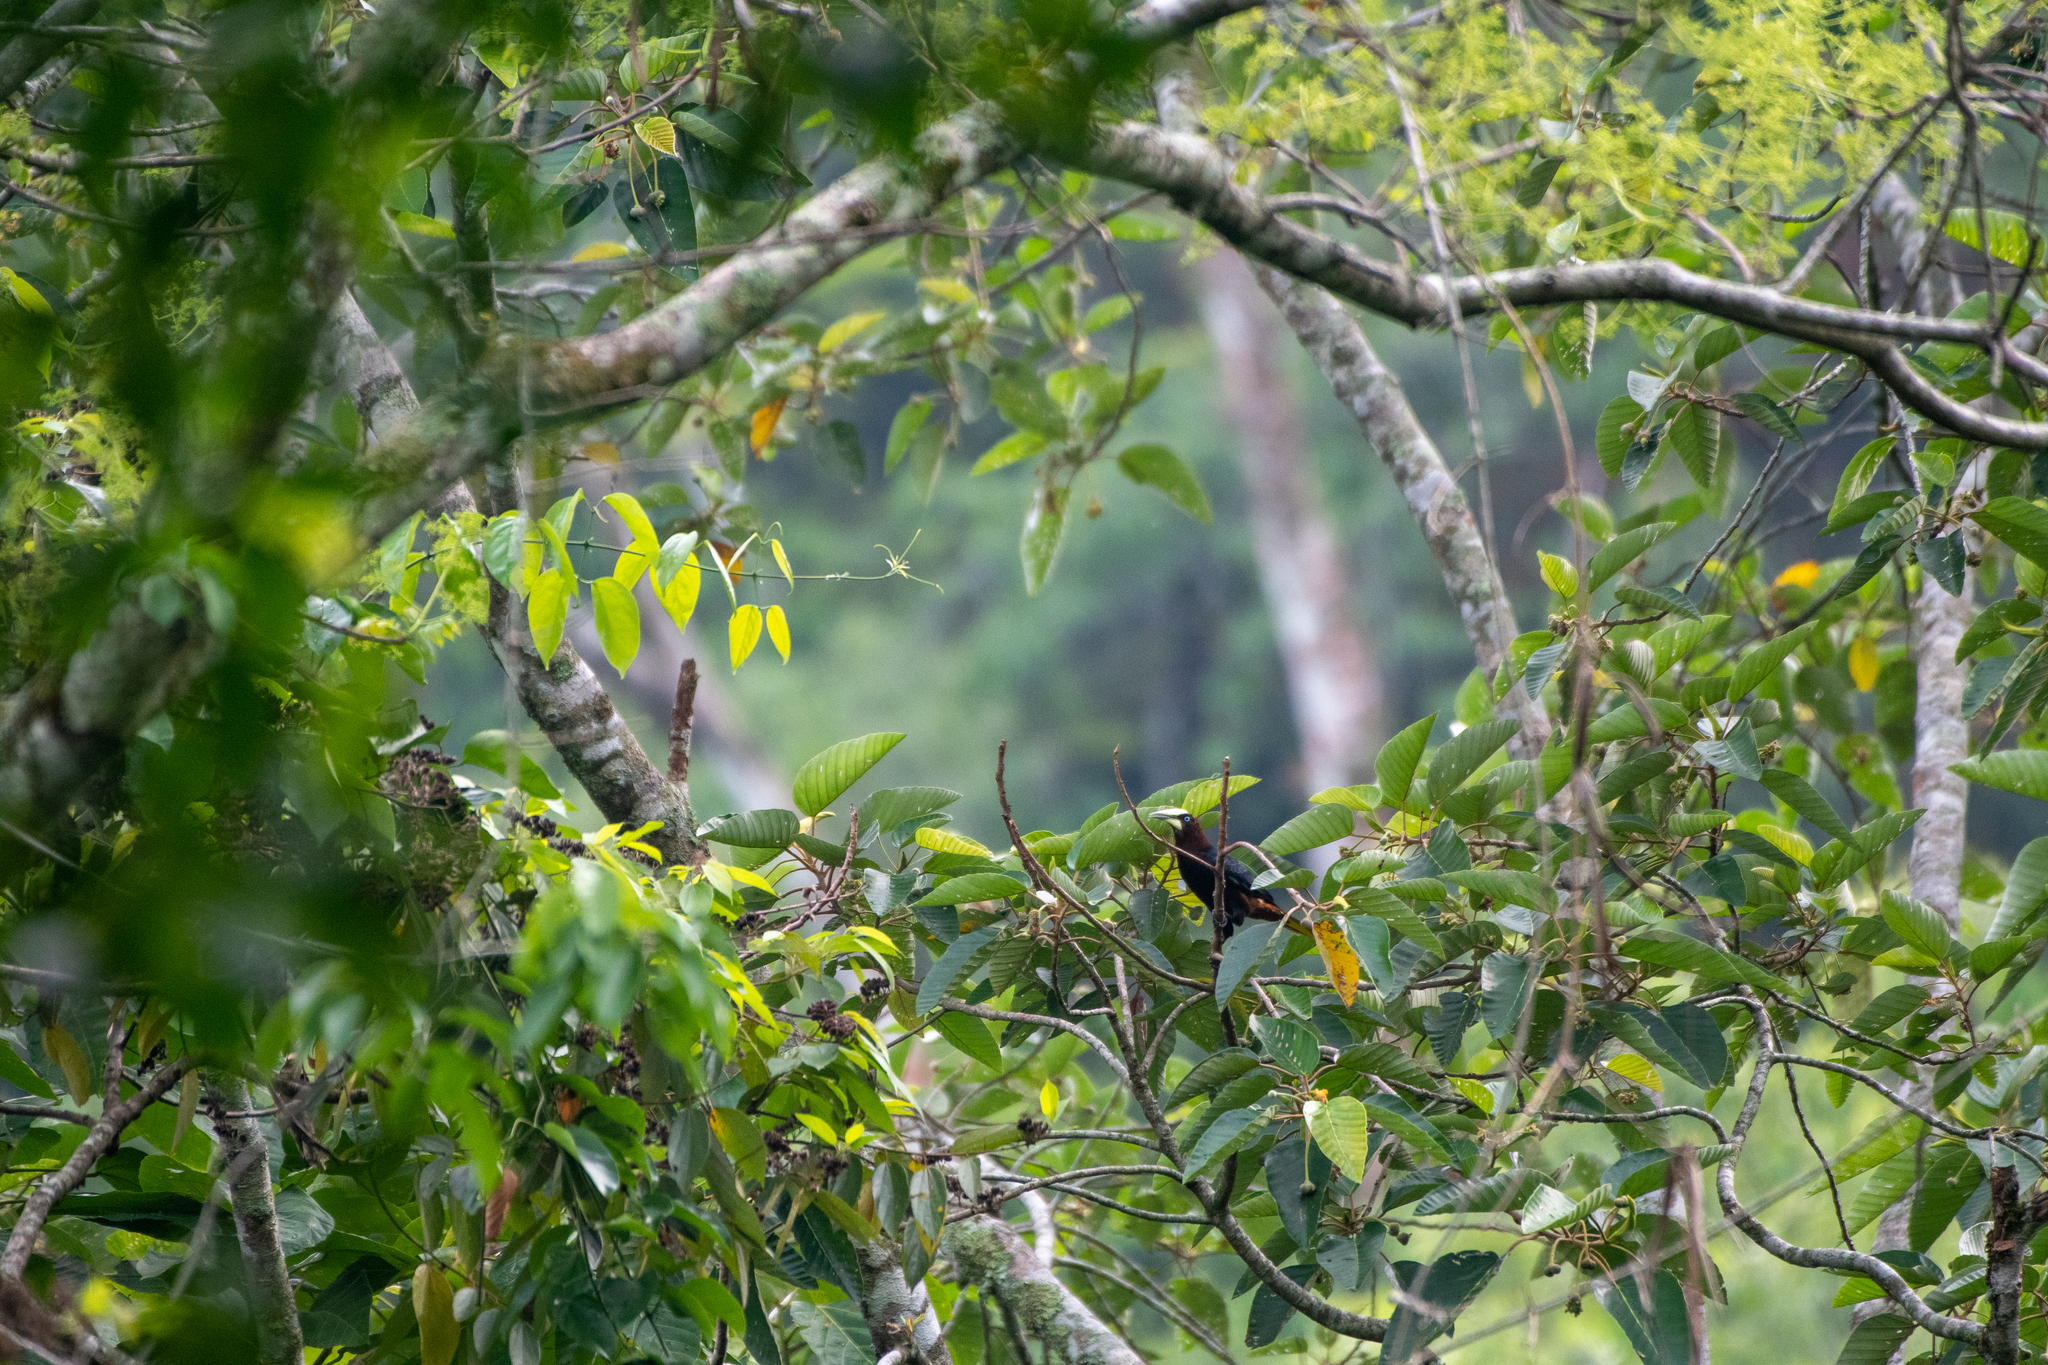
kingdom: Animalia
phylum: Chordata
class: Aves
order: Passeriformes
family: Icteridae
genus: Psarocolius
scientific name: Psarocolius wagleri
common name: Chestnut-headed oropendola
